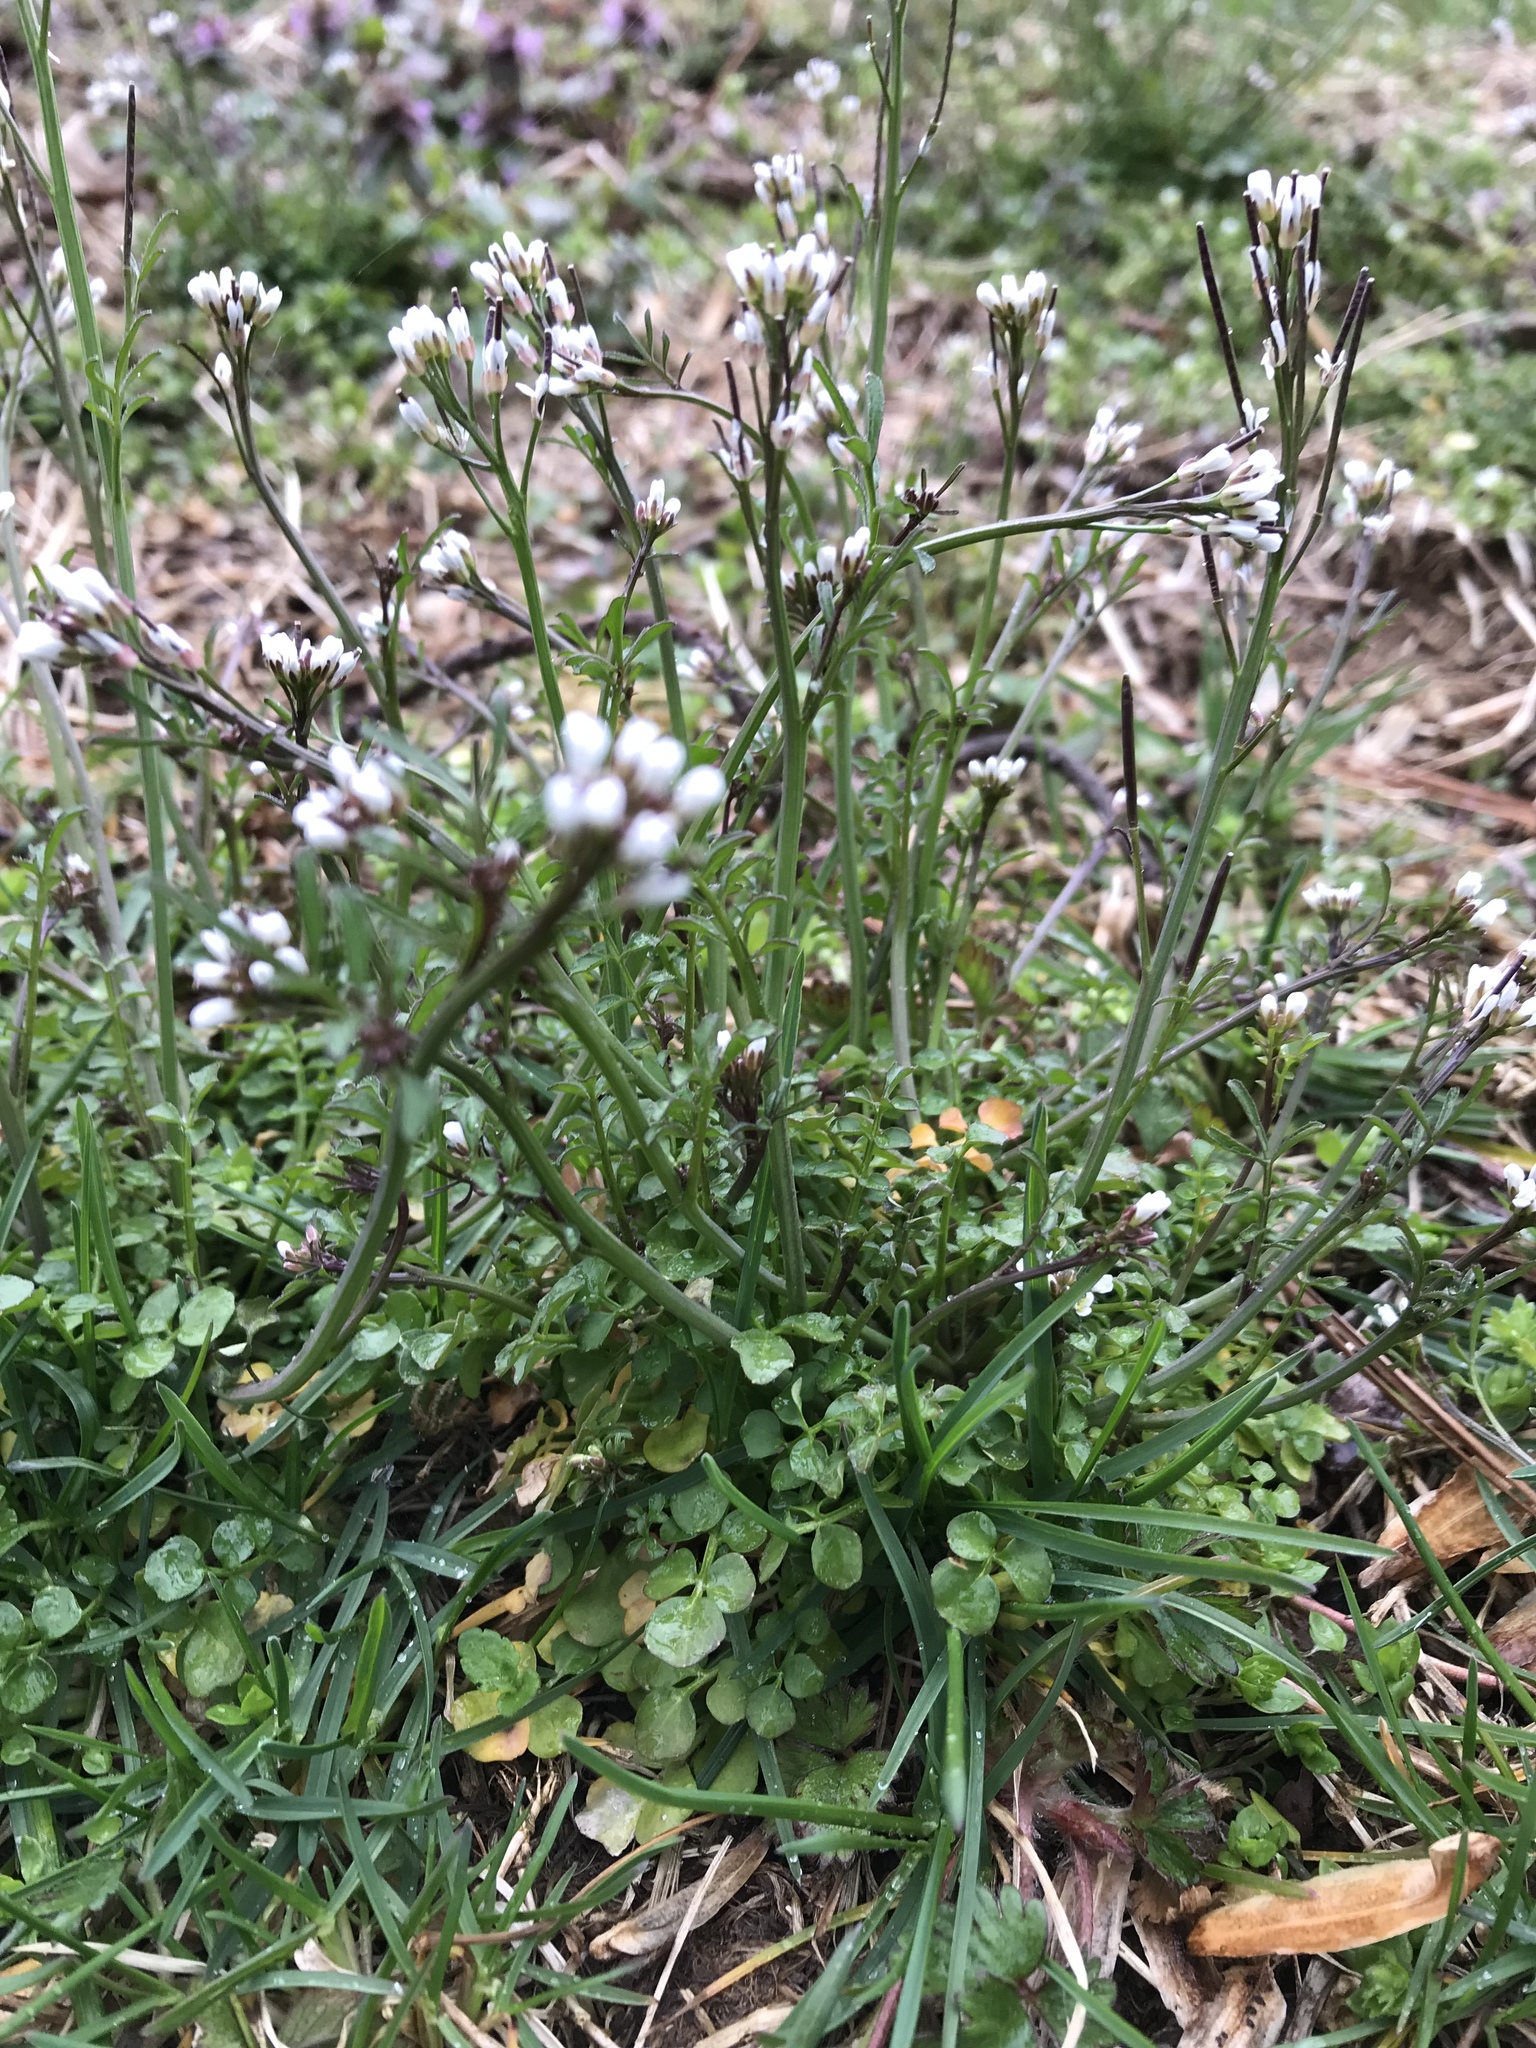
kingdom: Plantae
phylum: Tracheophyta
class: Magnoliopsida
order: Brassicales
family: Brassicaceae
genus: Cardamine
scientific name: Cardamine hirsuta
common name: Hairy bittercress
